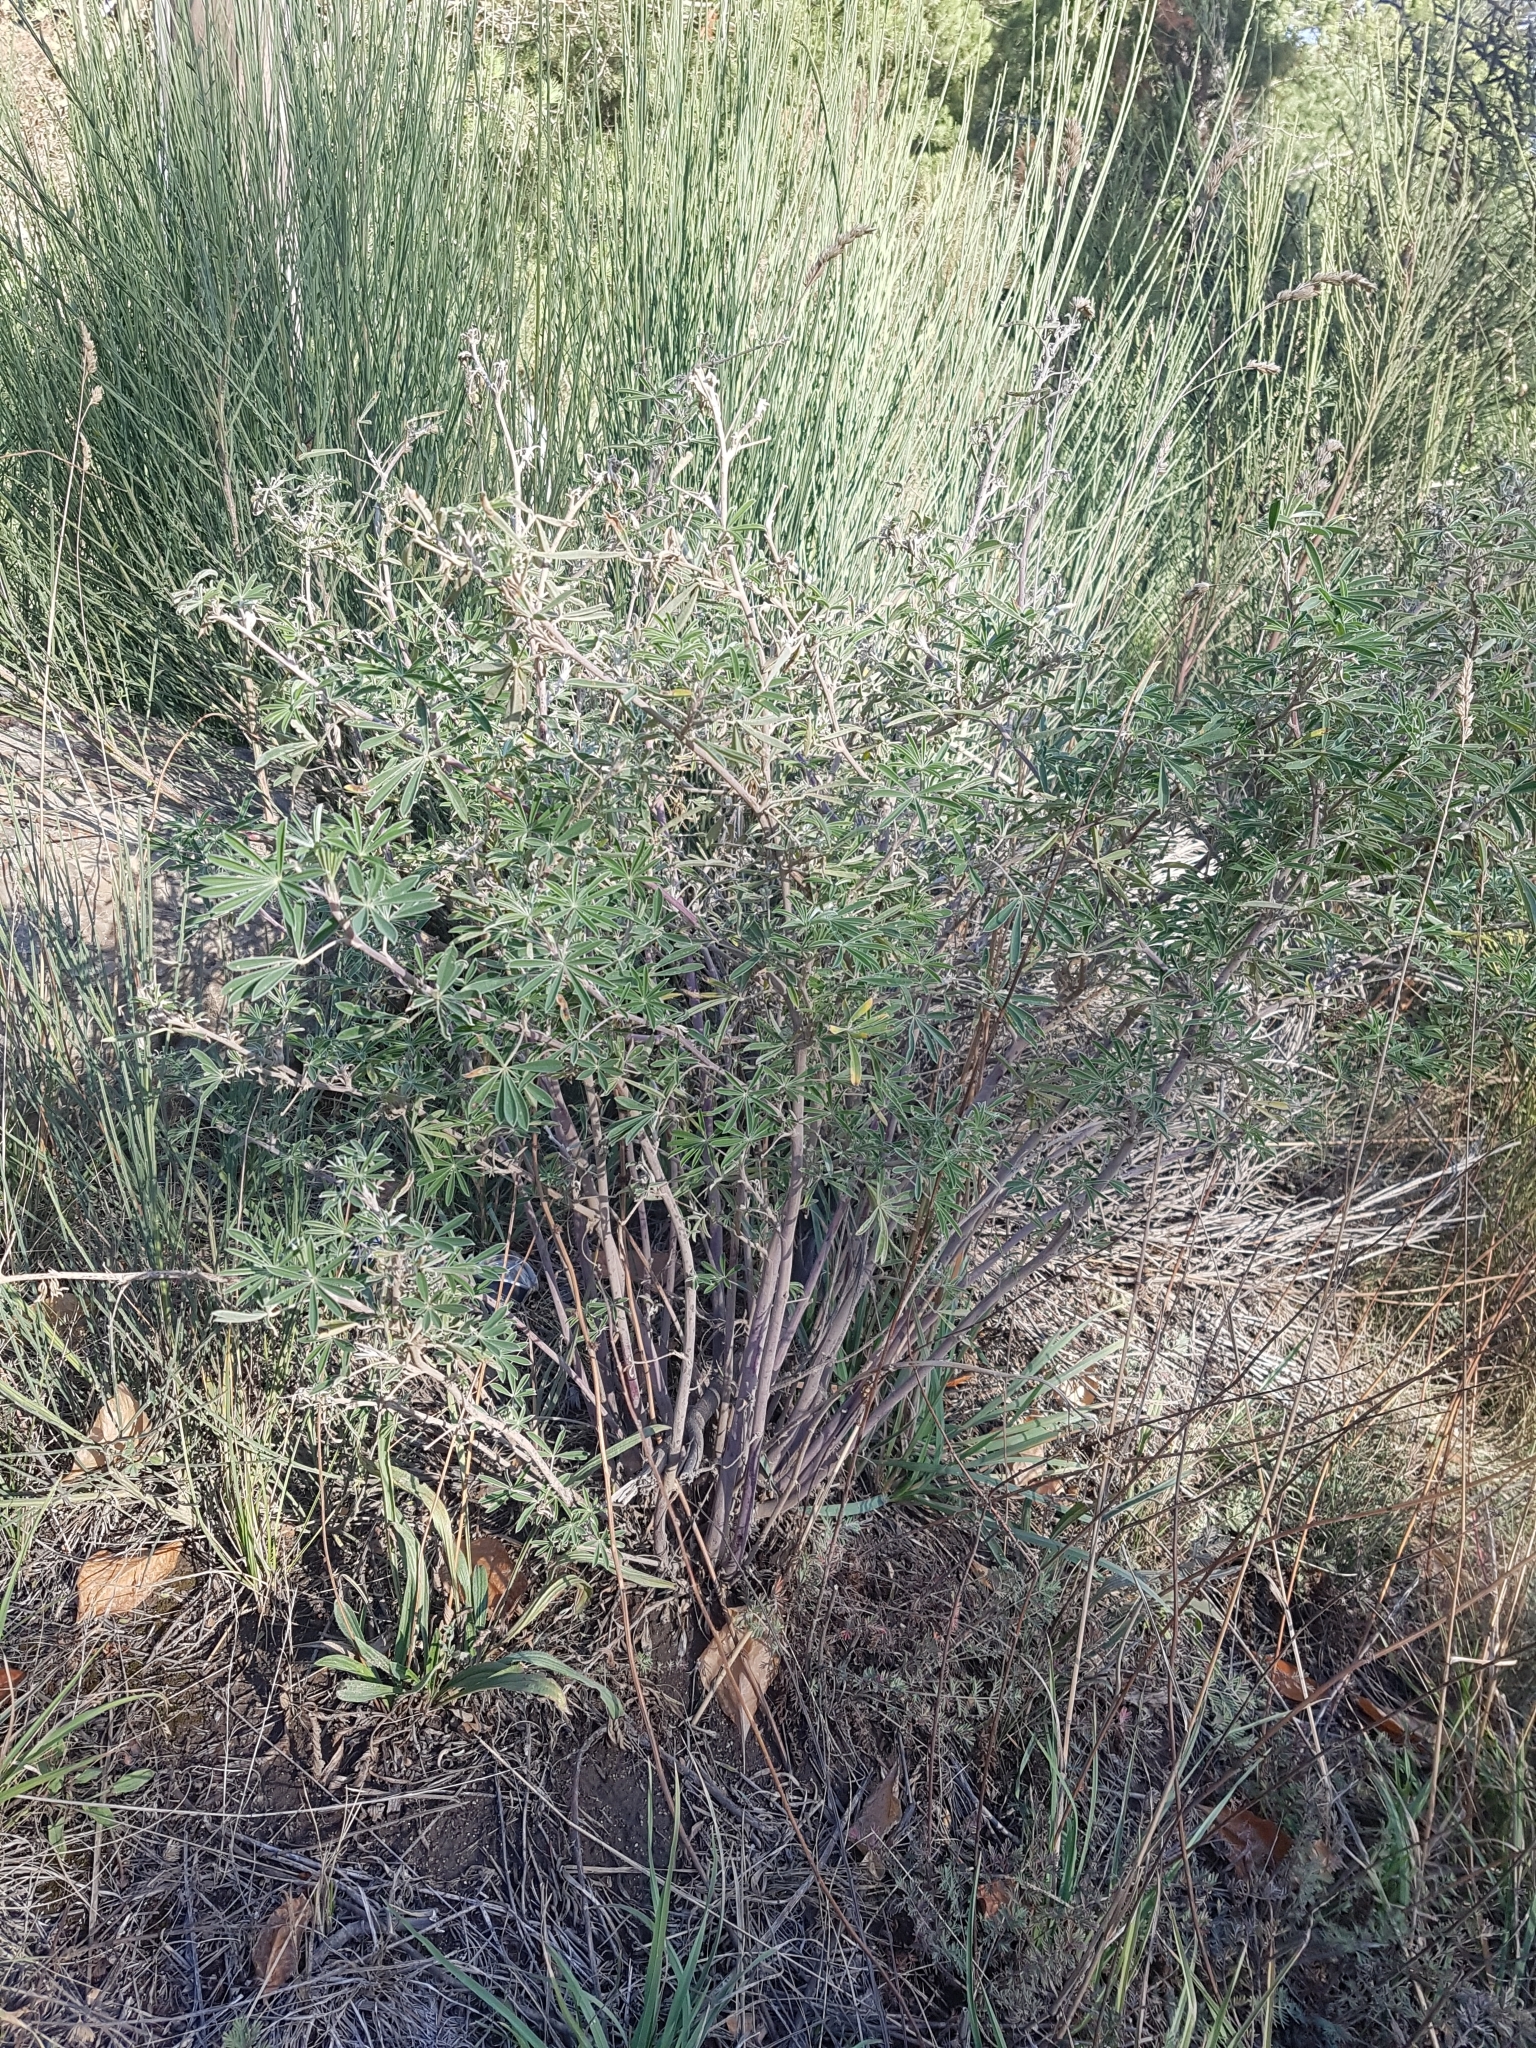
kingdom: Plantae
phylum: Tracheophyta
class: Magnoliopsida
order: Fabales
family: Fabaceae
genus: Lupinus
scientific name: Lupinus arboreus
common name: Yellow bush lupine
